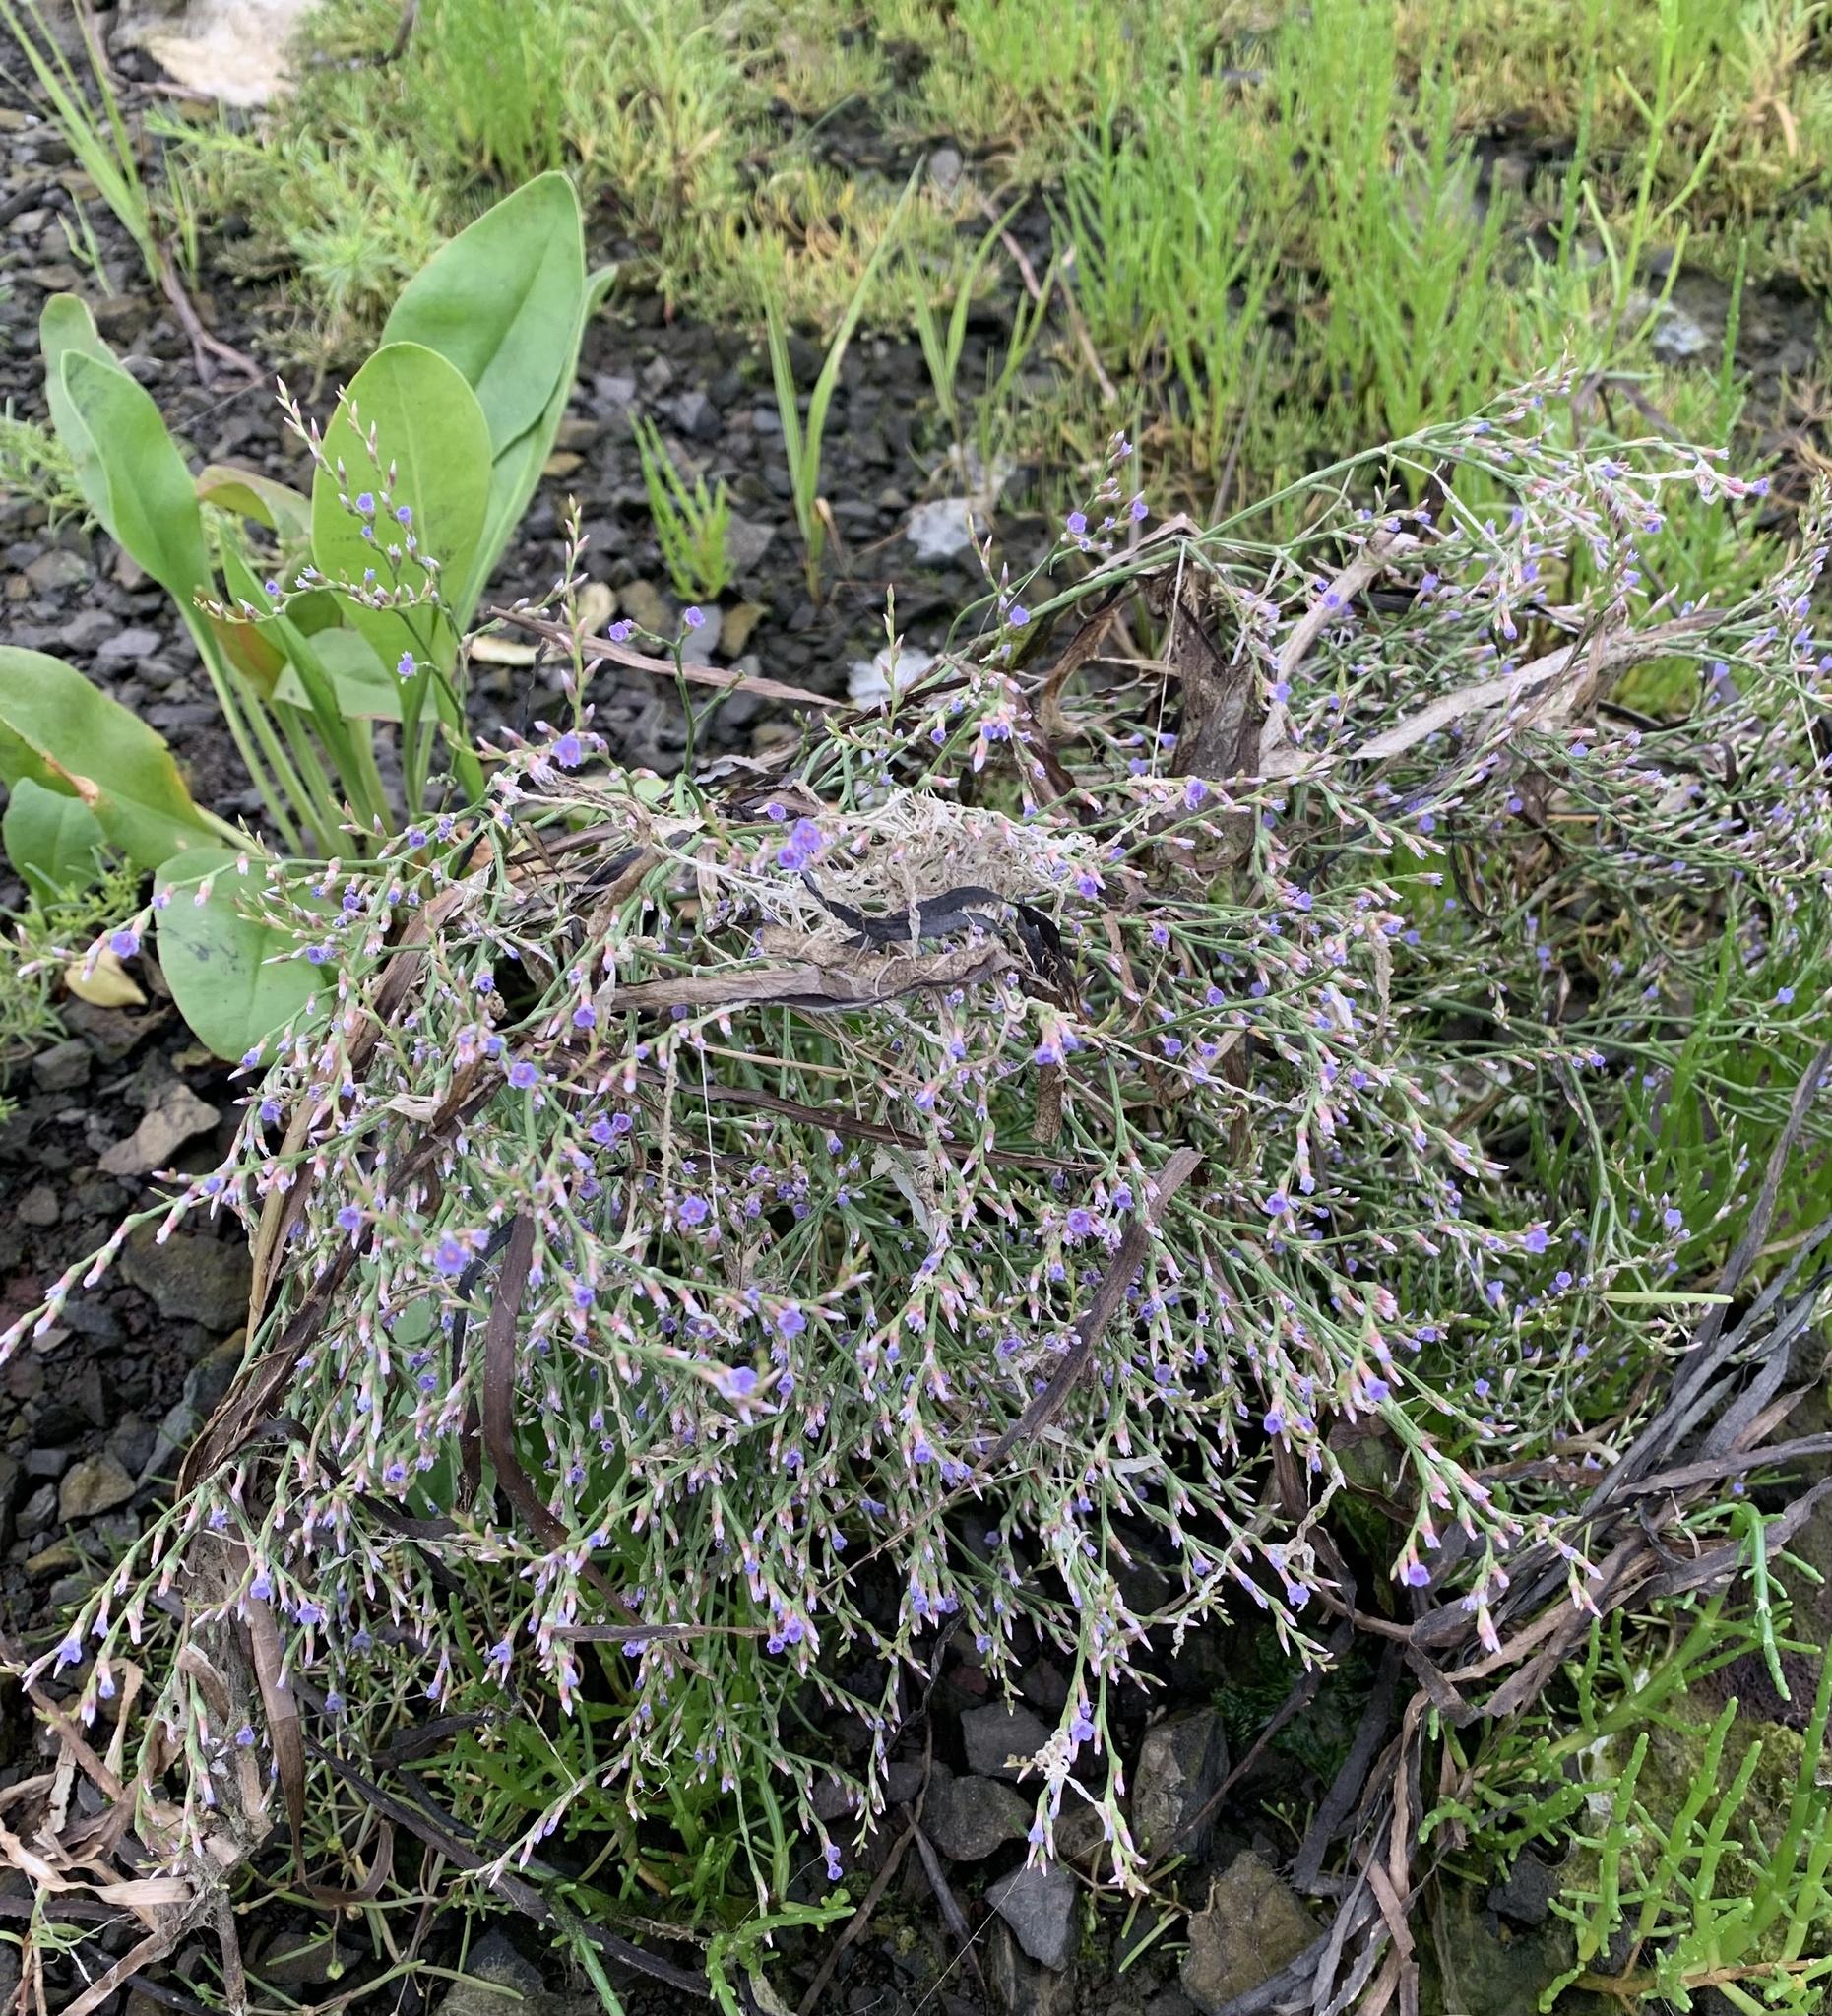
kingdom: Plantae
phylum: Tracheophyta
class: Magnoliopsida
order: Caryophyllales
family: Plumbaginaceae
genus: Limonium
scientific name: Limonium carolinianum
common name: Carolina sea lavender
